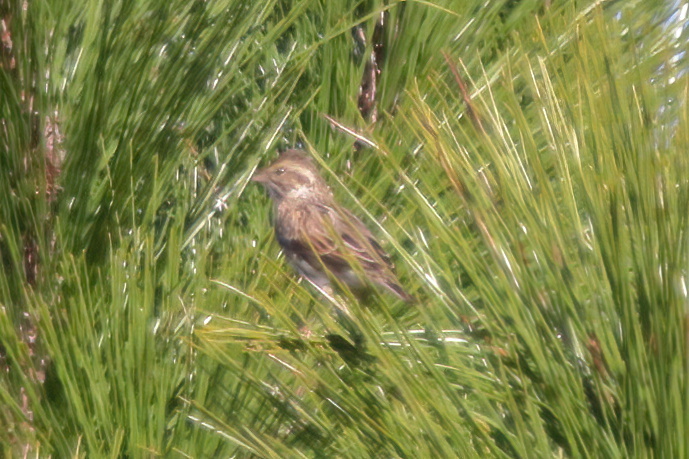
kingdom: Animalia
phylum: Chordata
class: Aves
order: Passeriformes
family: Passerellidae
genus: Passerculus
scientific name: Passerculus sandwichensis
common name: Savannah sparrow
